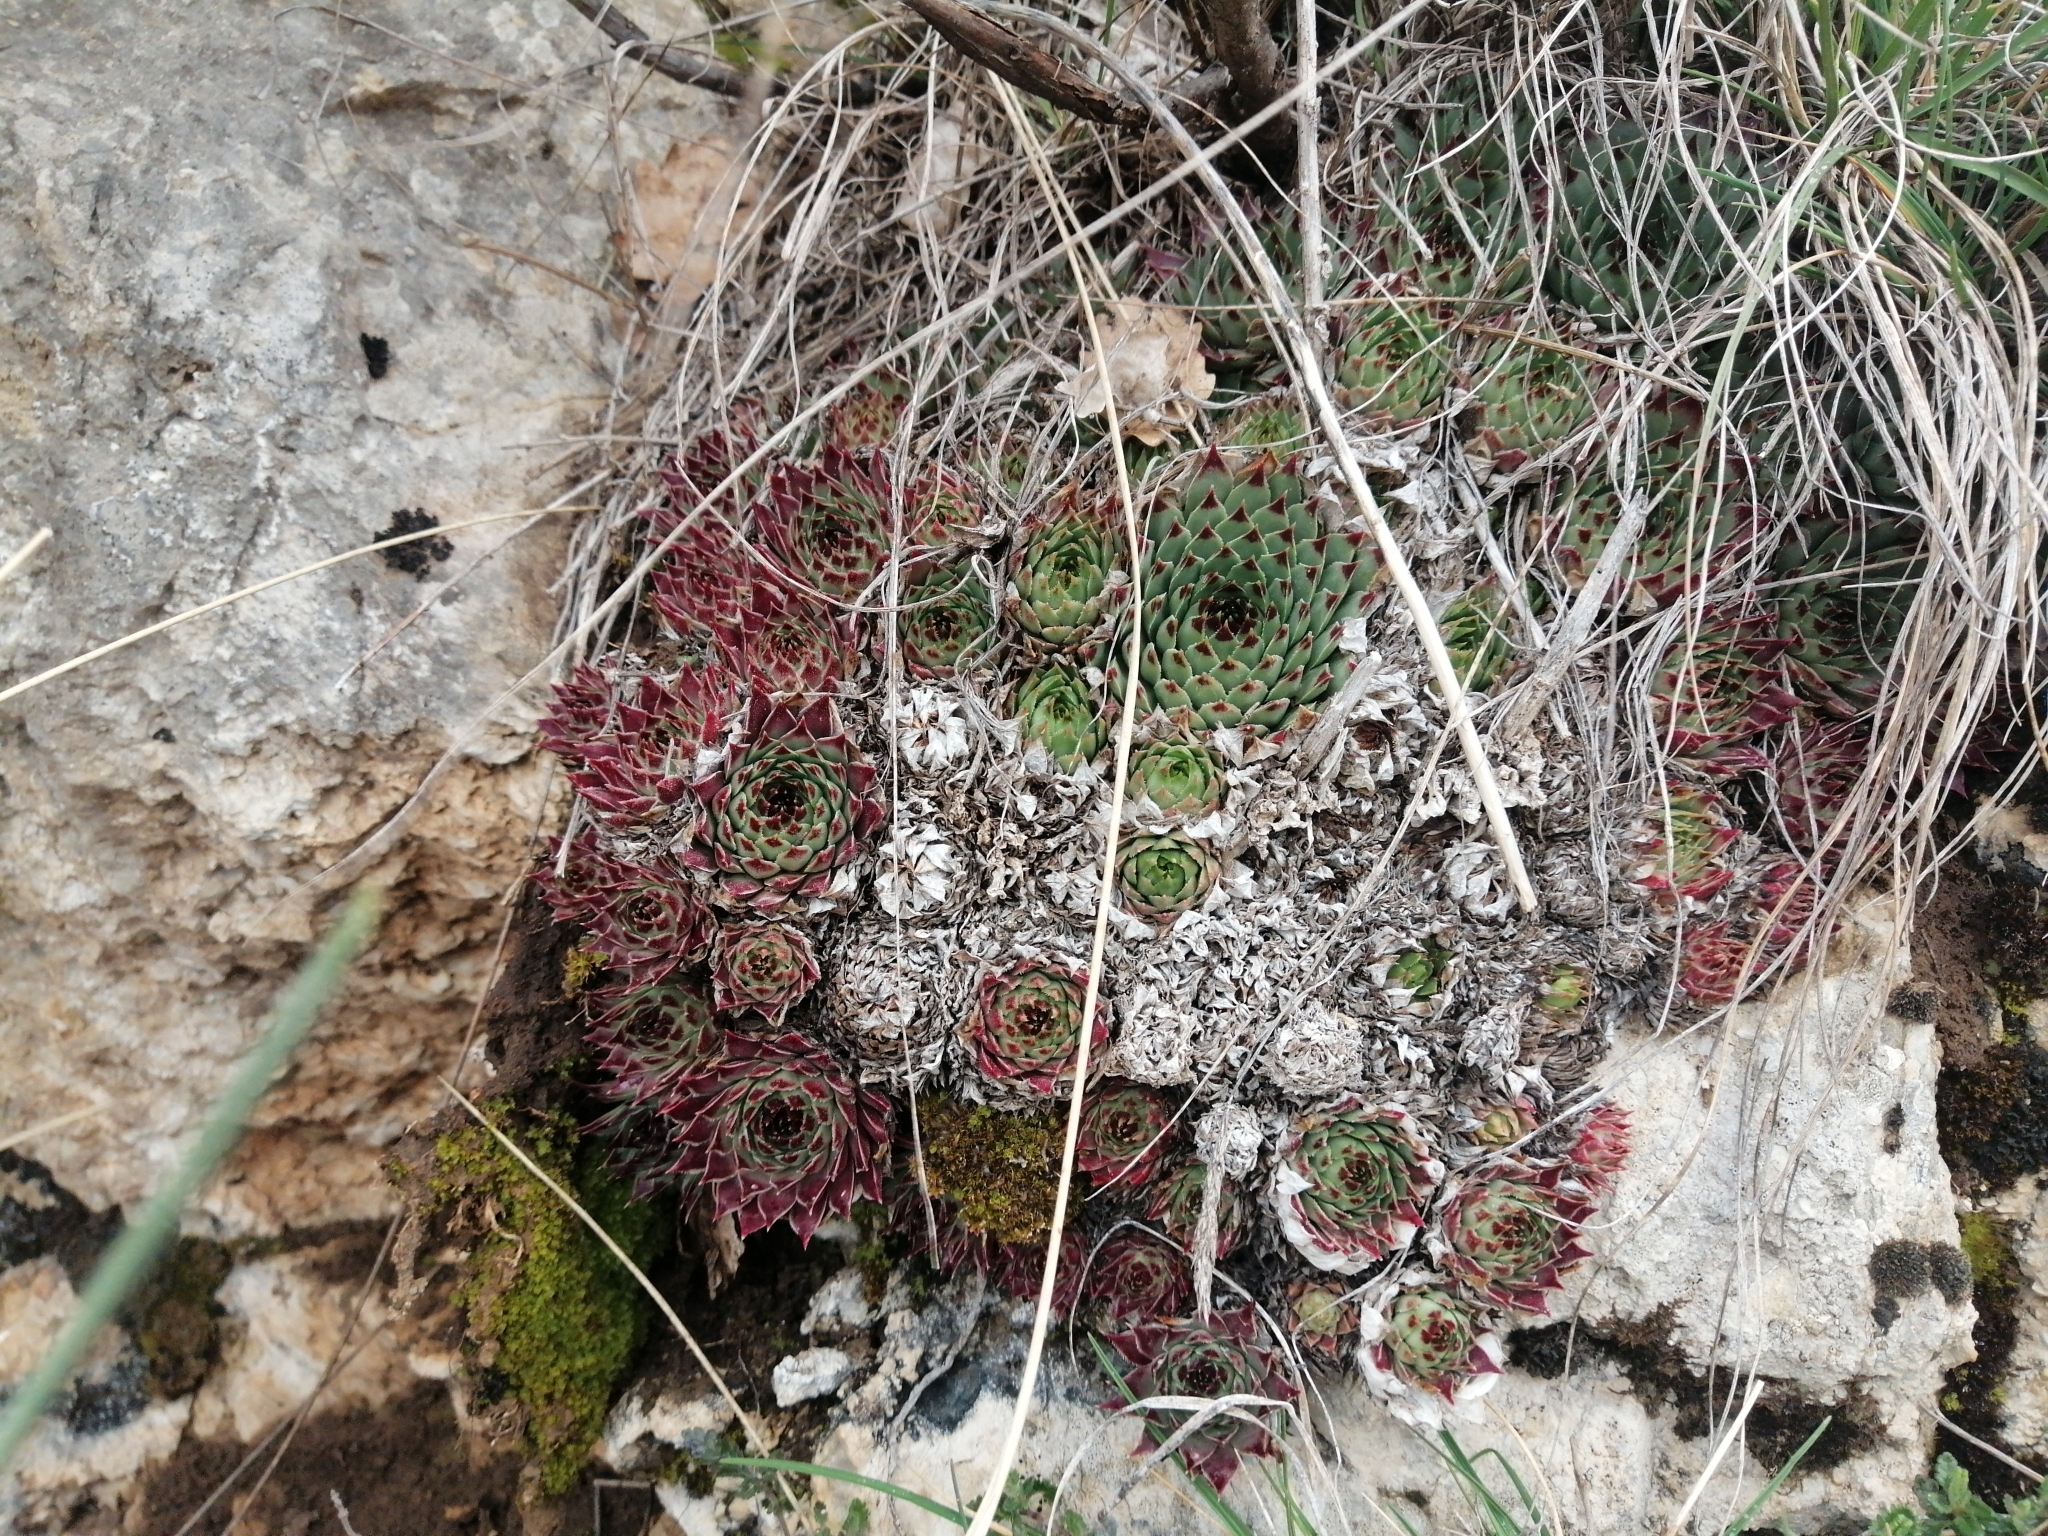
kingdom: Plantae
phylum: Tracheophyta
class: Magnoliopsida
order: Saxifragales
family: Crassulaceae
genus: Sempervivum
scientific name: Sempervivum calcareum
